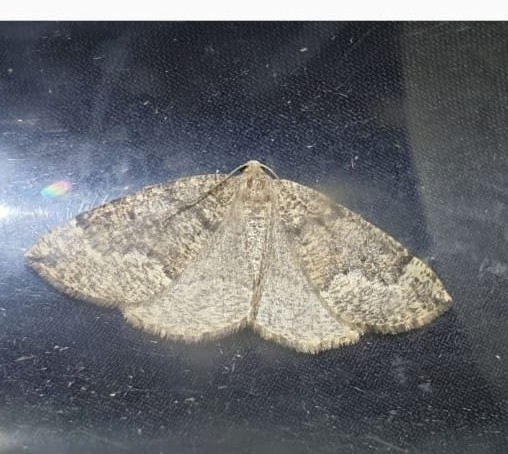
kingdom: Animalia
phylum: Arthropoda
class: Insecta
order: Lepidoptera
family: Geometridae
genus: Pungeleria
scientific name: Pungeleria capreolaria
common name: Banded pine carpet
